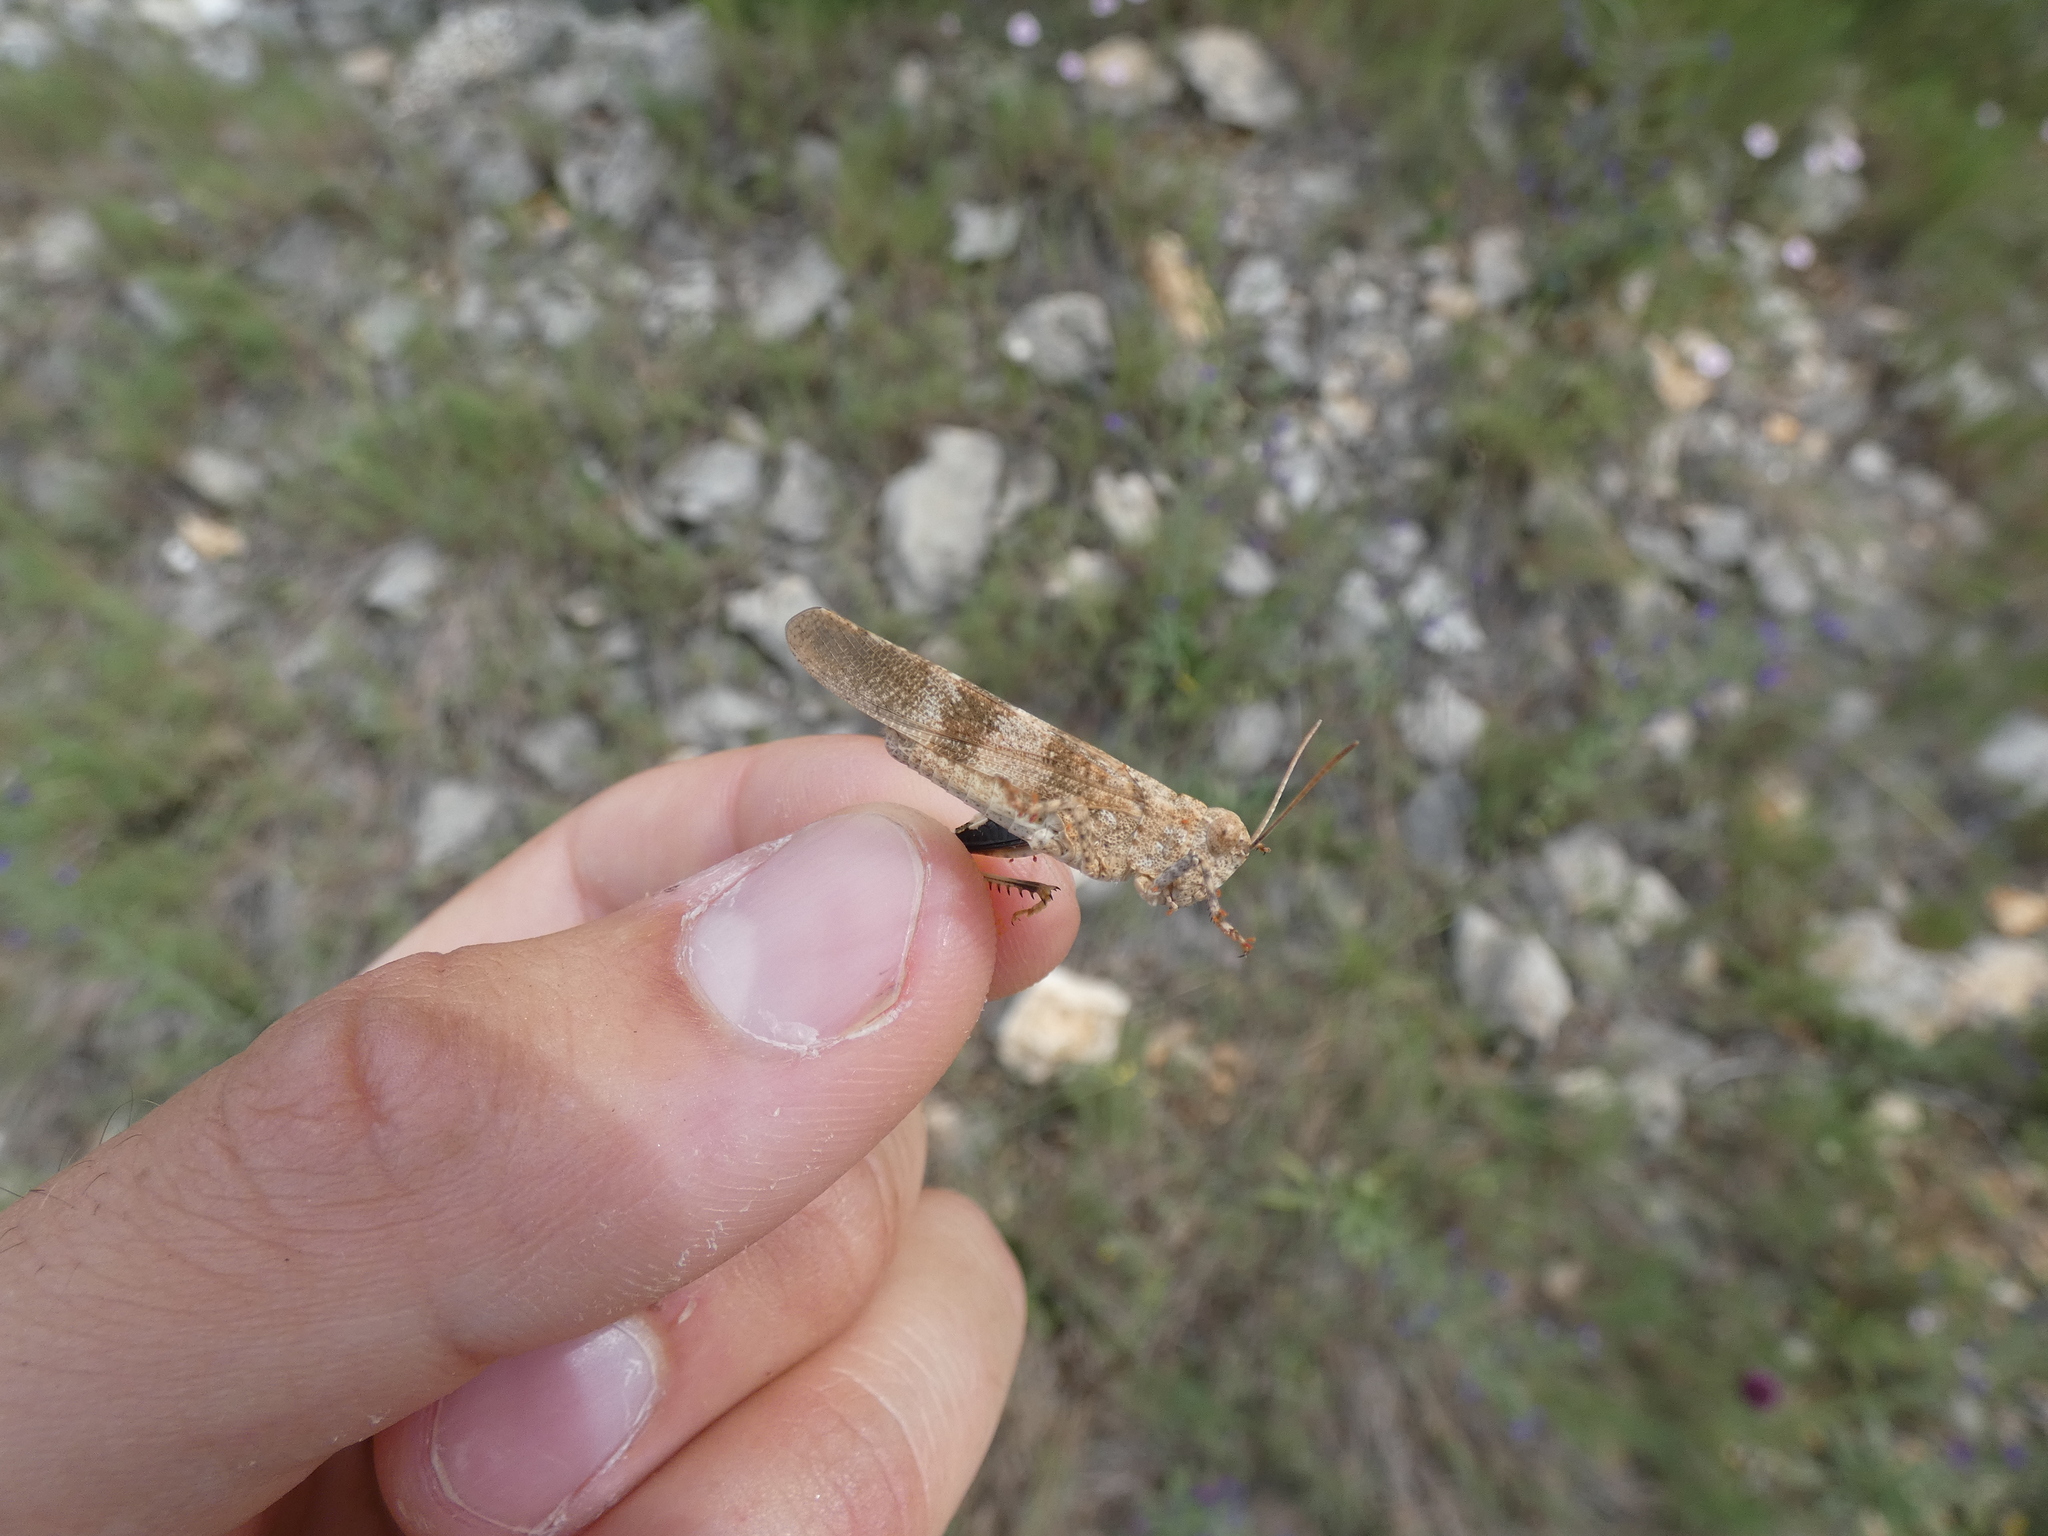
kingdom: Animalia
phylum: Arthropoda
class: Insecta
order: Orthoptera
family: Acrididae
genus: Oedipoda
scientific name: Oedipoda germanica
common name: Red band-winged grasshopper
